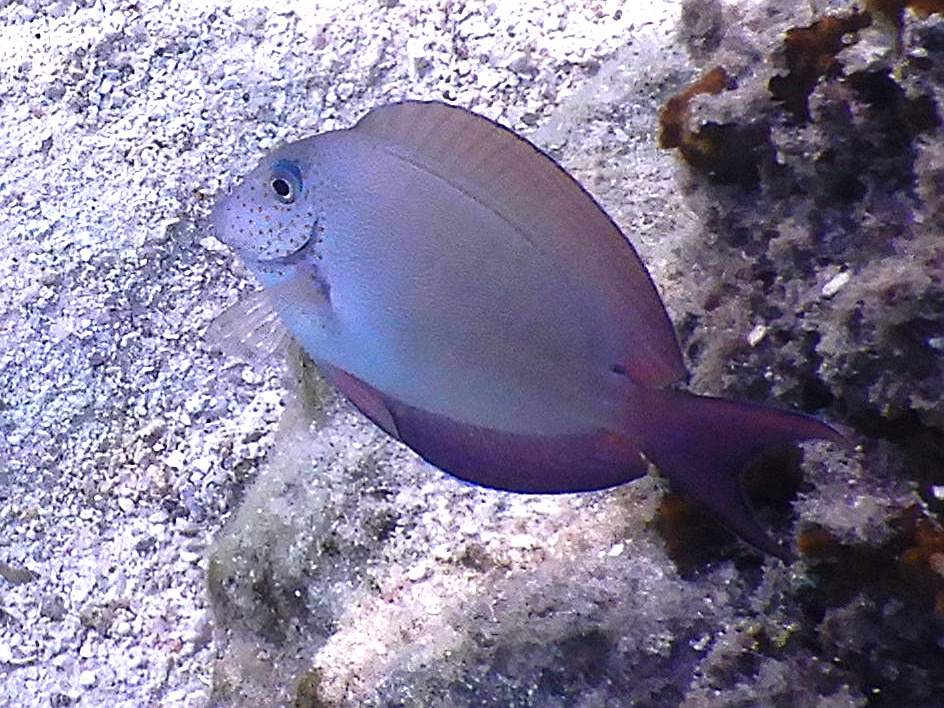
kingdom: Animalia
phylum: Chordata
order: Perciformes
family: Acanthuridae
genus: Acanthurus
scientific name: Acanthurus nigrofuscus
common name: Blackspot surgeonfish
